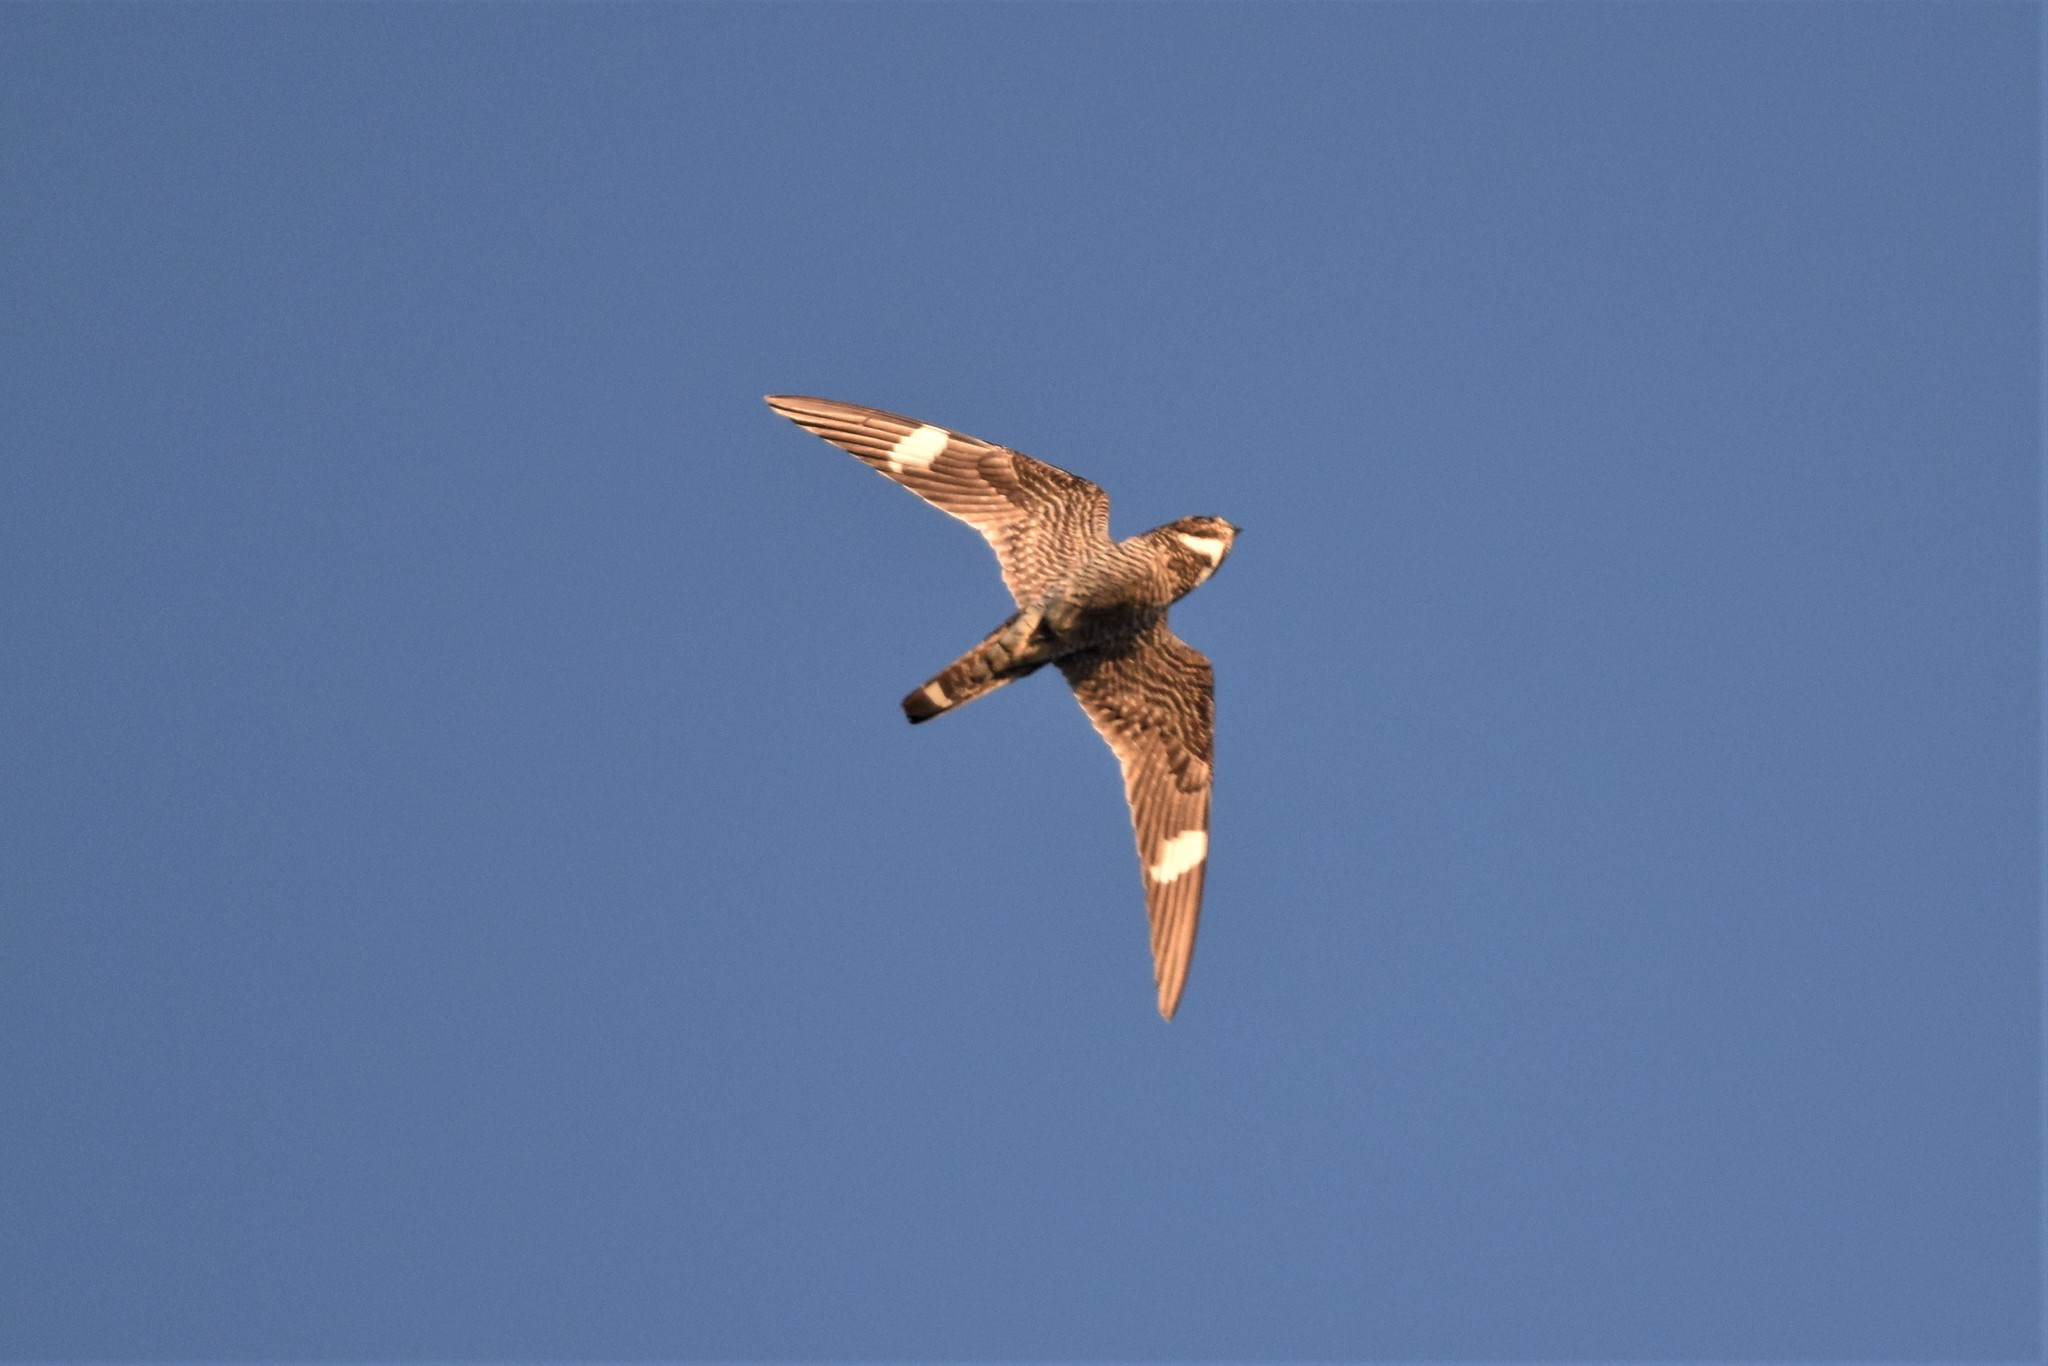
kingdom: Animalia
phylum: Chordata
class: Aves
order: Caprimulgiformes
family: Caprimulgidae
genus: Chordeiles
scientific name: Chordeiles minor
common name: Common nighthawk
